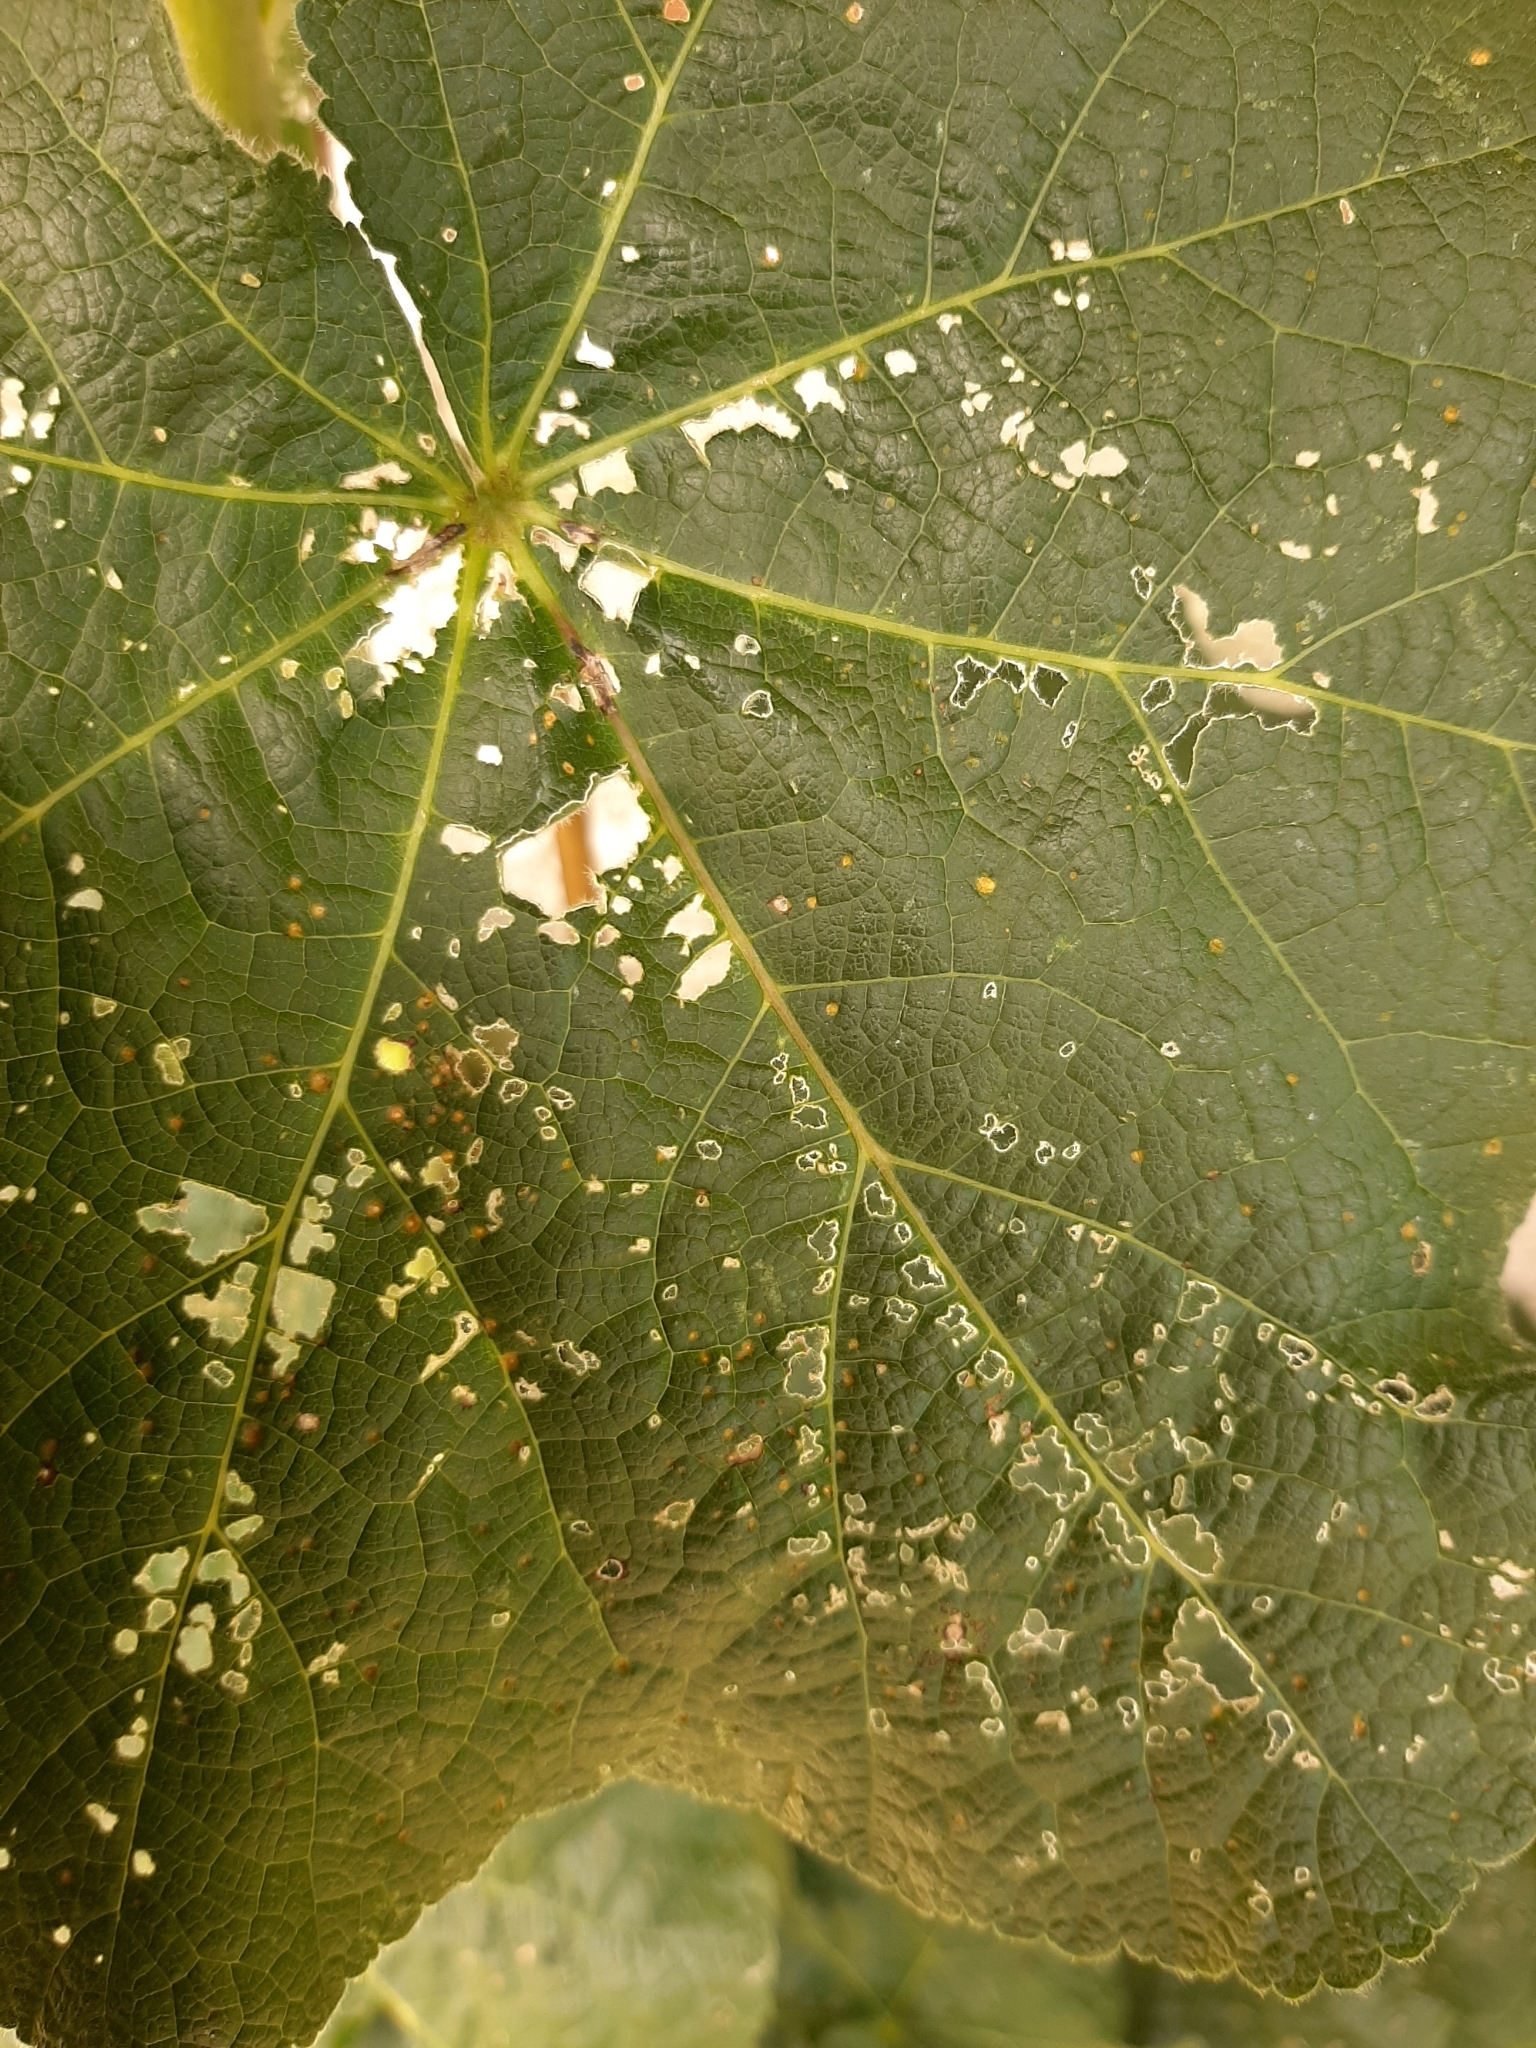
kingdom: Fungi
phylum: Basidiomycota
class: Pucciniomycetes
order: Pucciniales
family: Pucciniaceae
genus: Puccinia
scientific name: Puccinia malvacearum
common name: Hollyhock rust
